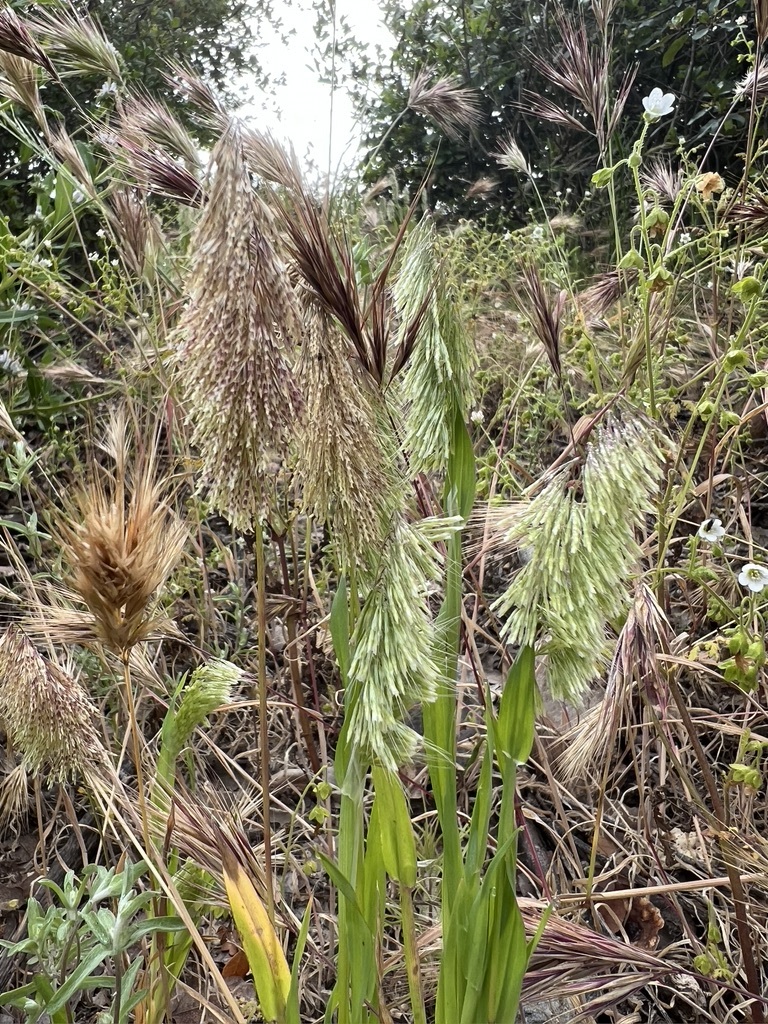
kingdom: Plantae
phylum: Tracheophyta
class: Liliopsida
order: Poales
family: Poaceae
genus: Lamarckia
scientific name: Lamarckia aurea
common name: Golden dog's-tail
